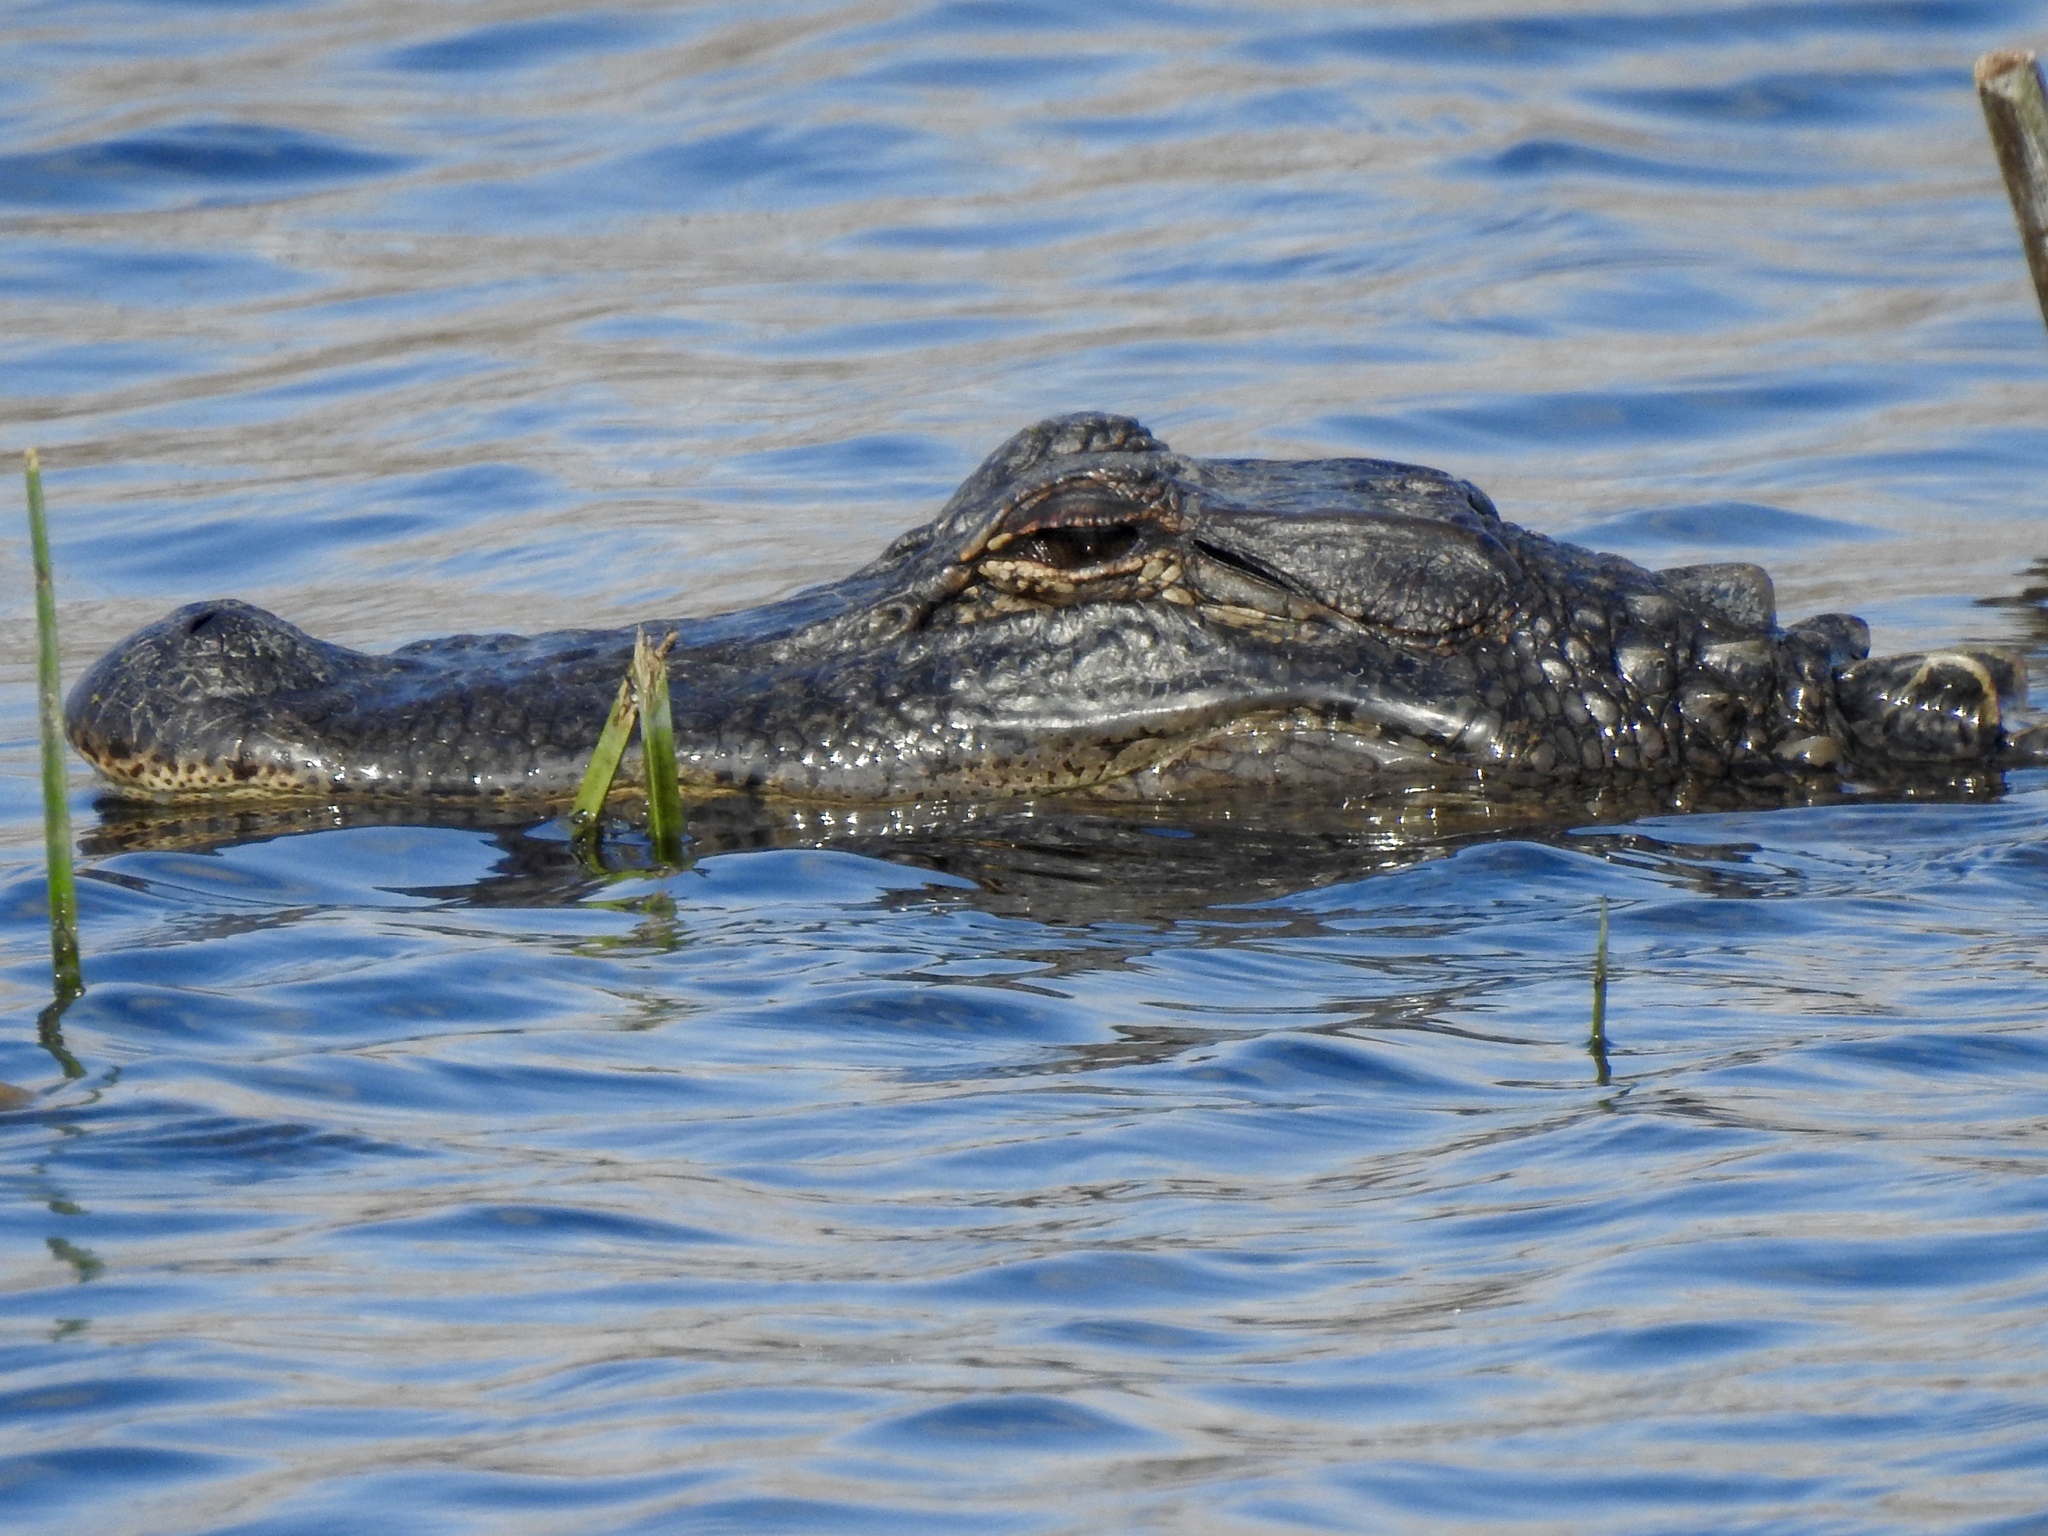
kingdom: Animalia
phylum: Chordata
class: Crocodylia
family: Alligatoridae
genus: Alligator
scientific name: Alligator mississippiensis
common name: American alligator
